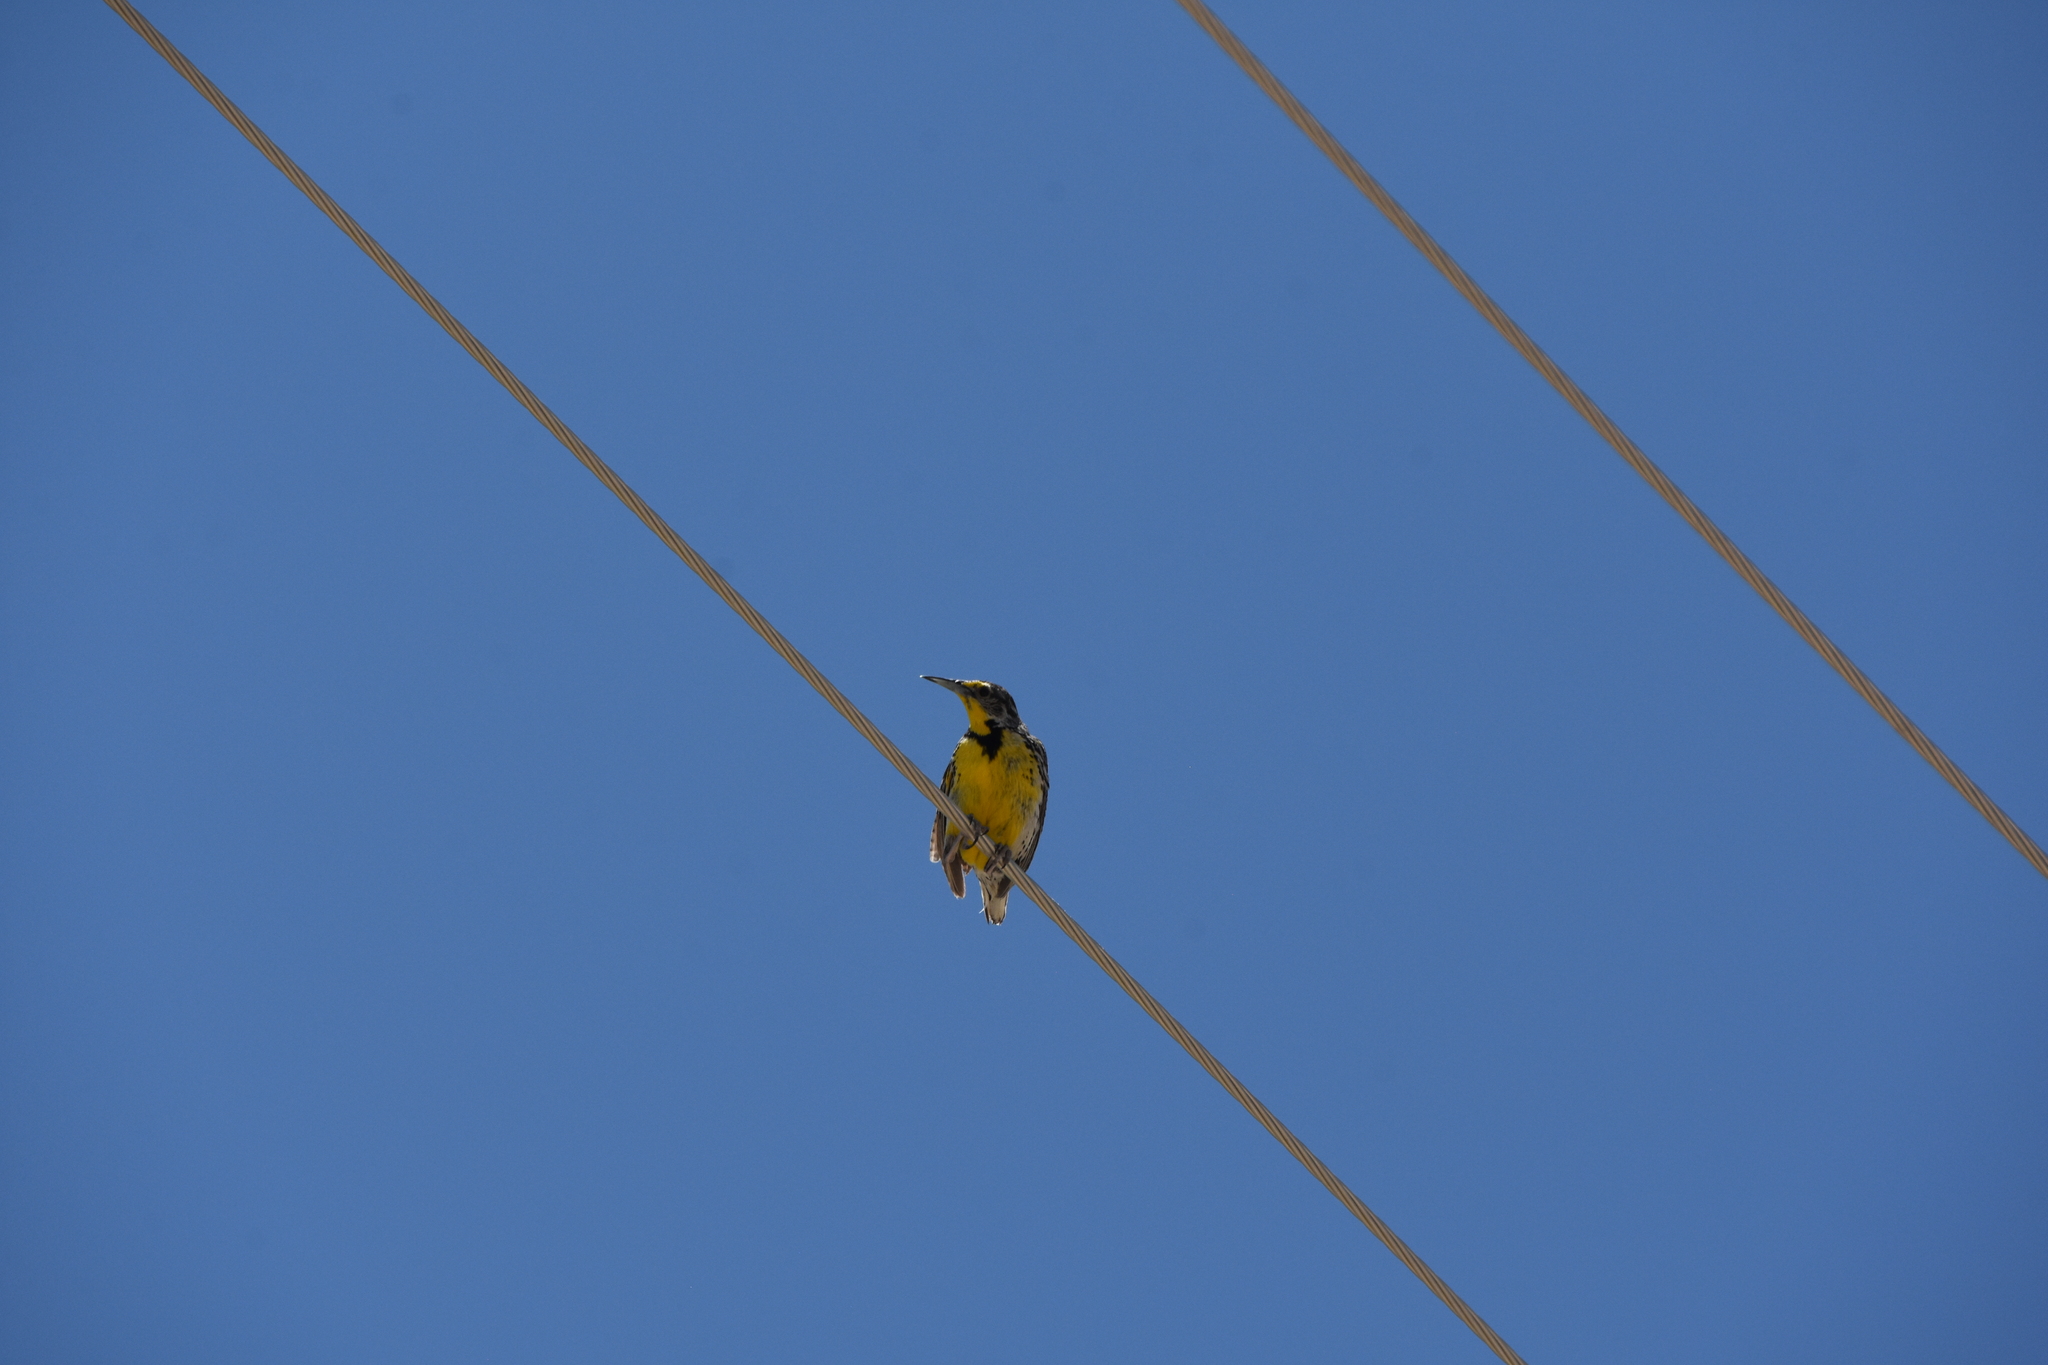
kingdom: Animalia
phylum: Chordata
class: Aves
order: Passeriformes
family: Icteridae
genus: Sturnella
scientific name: Sturnella neglecta
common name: Western meadowlark
